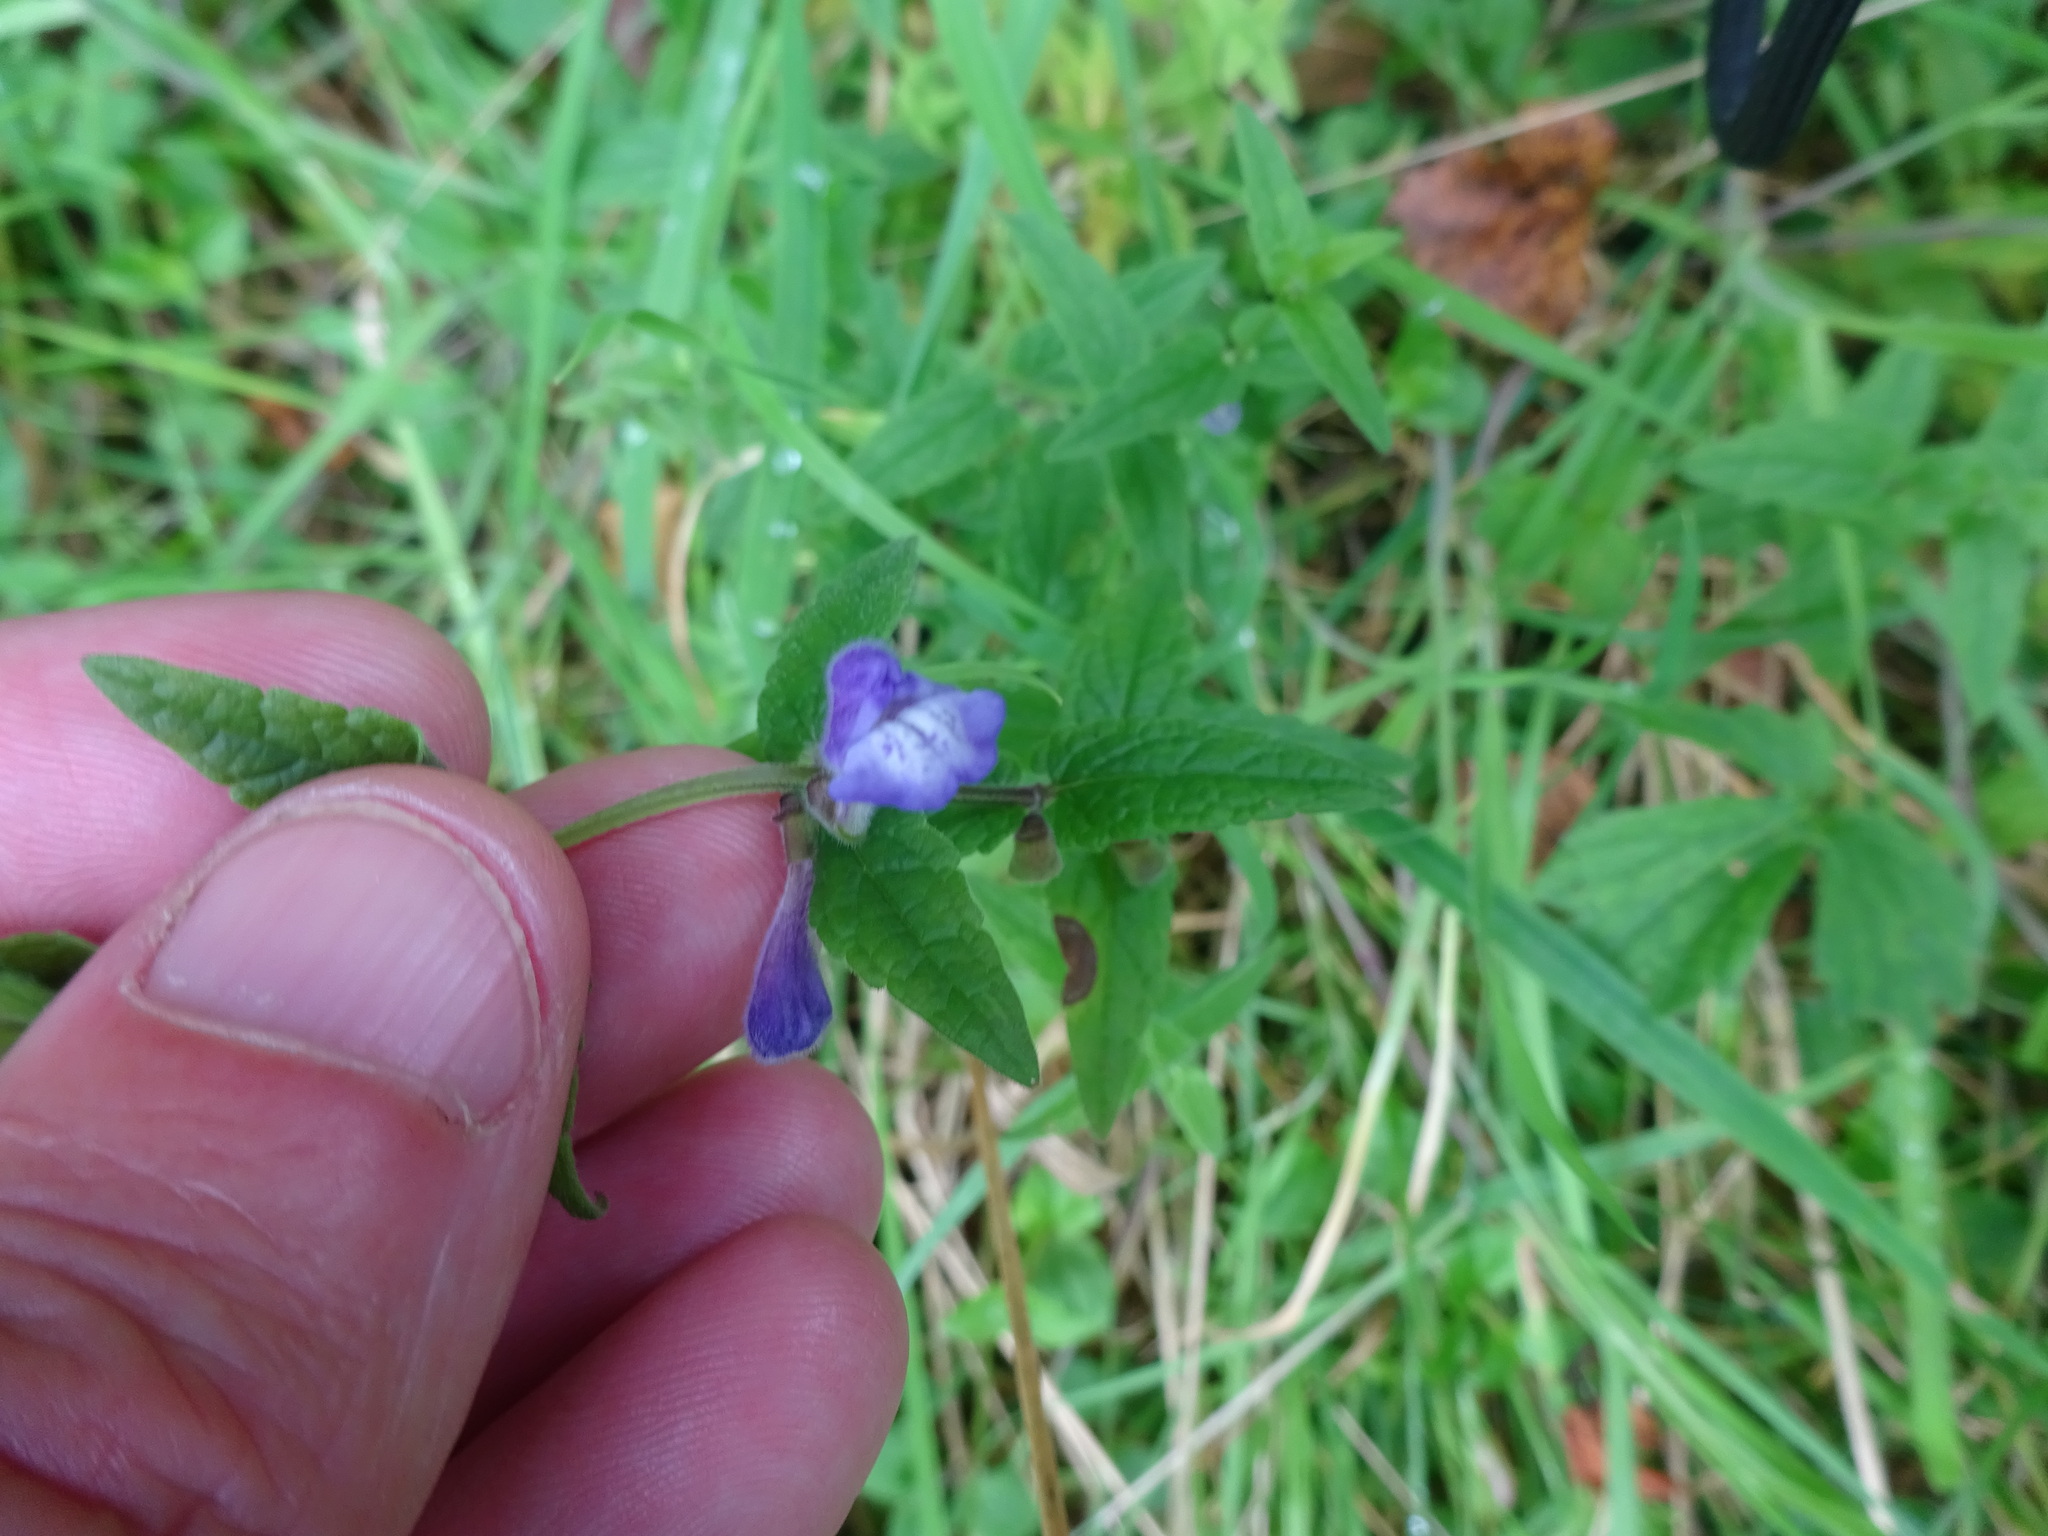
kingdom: Plantae
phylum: Tracheophyta
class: Magnoliopsida
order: Lamiales
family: Lamiaceae
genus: Scutellaria
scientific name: Scutellaria galericulata
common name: Skullcap
